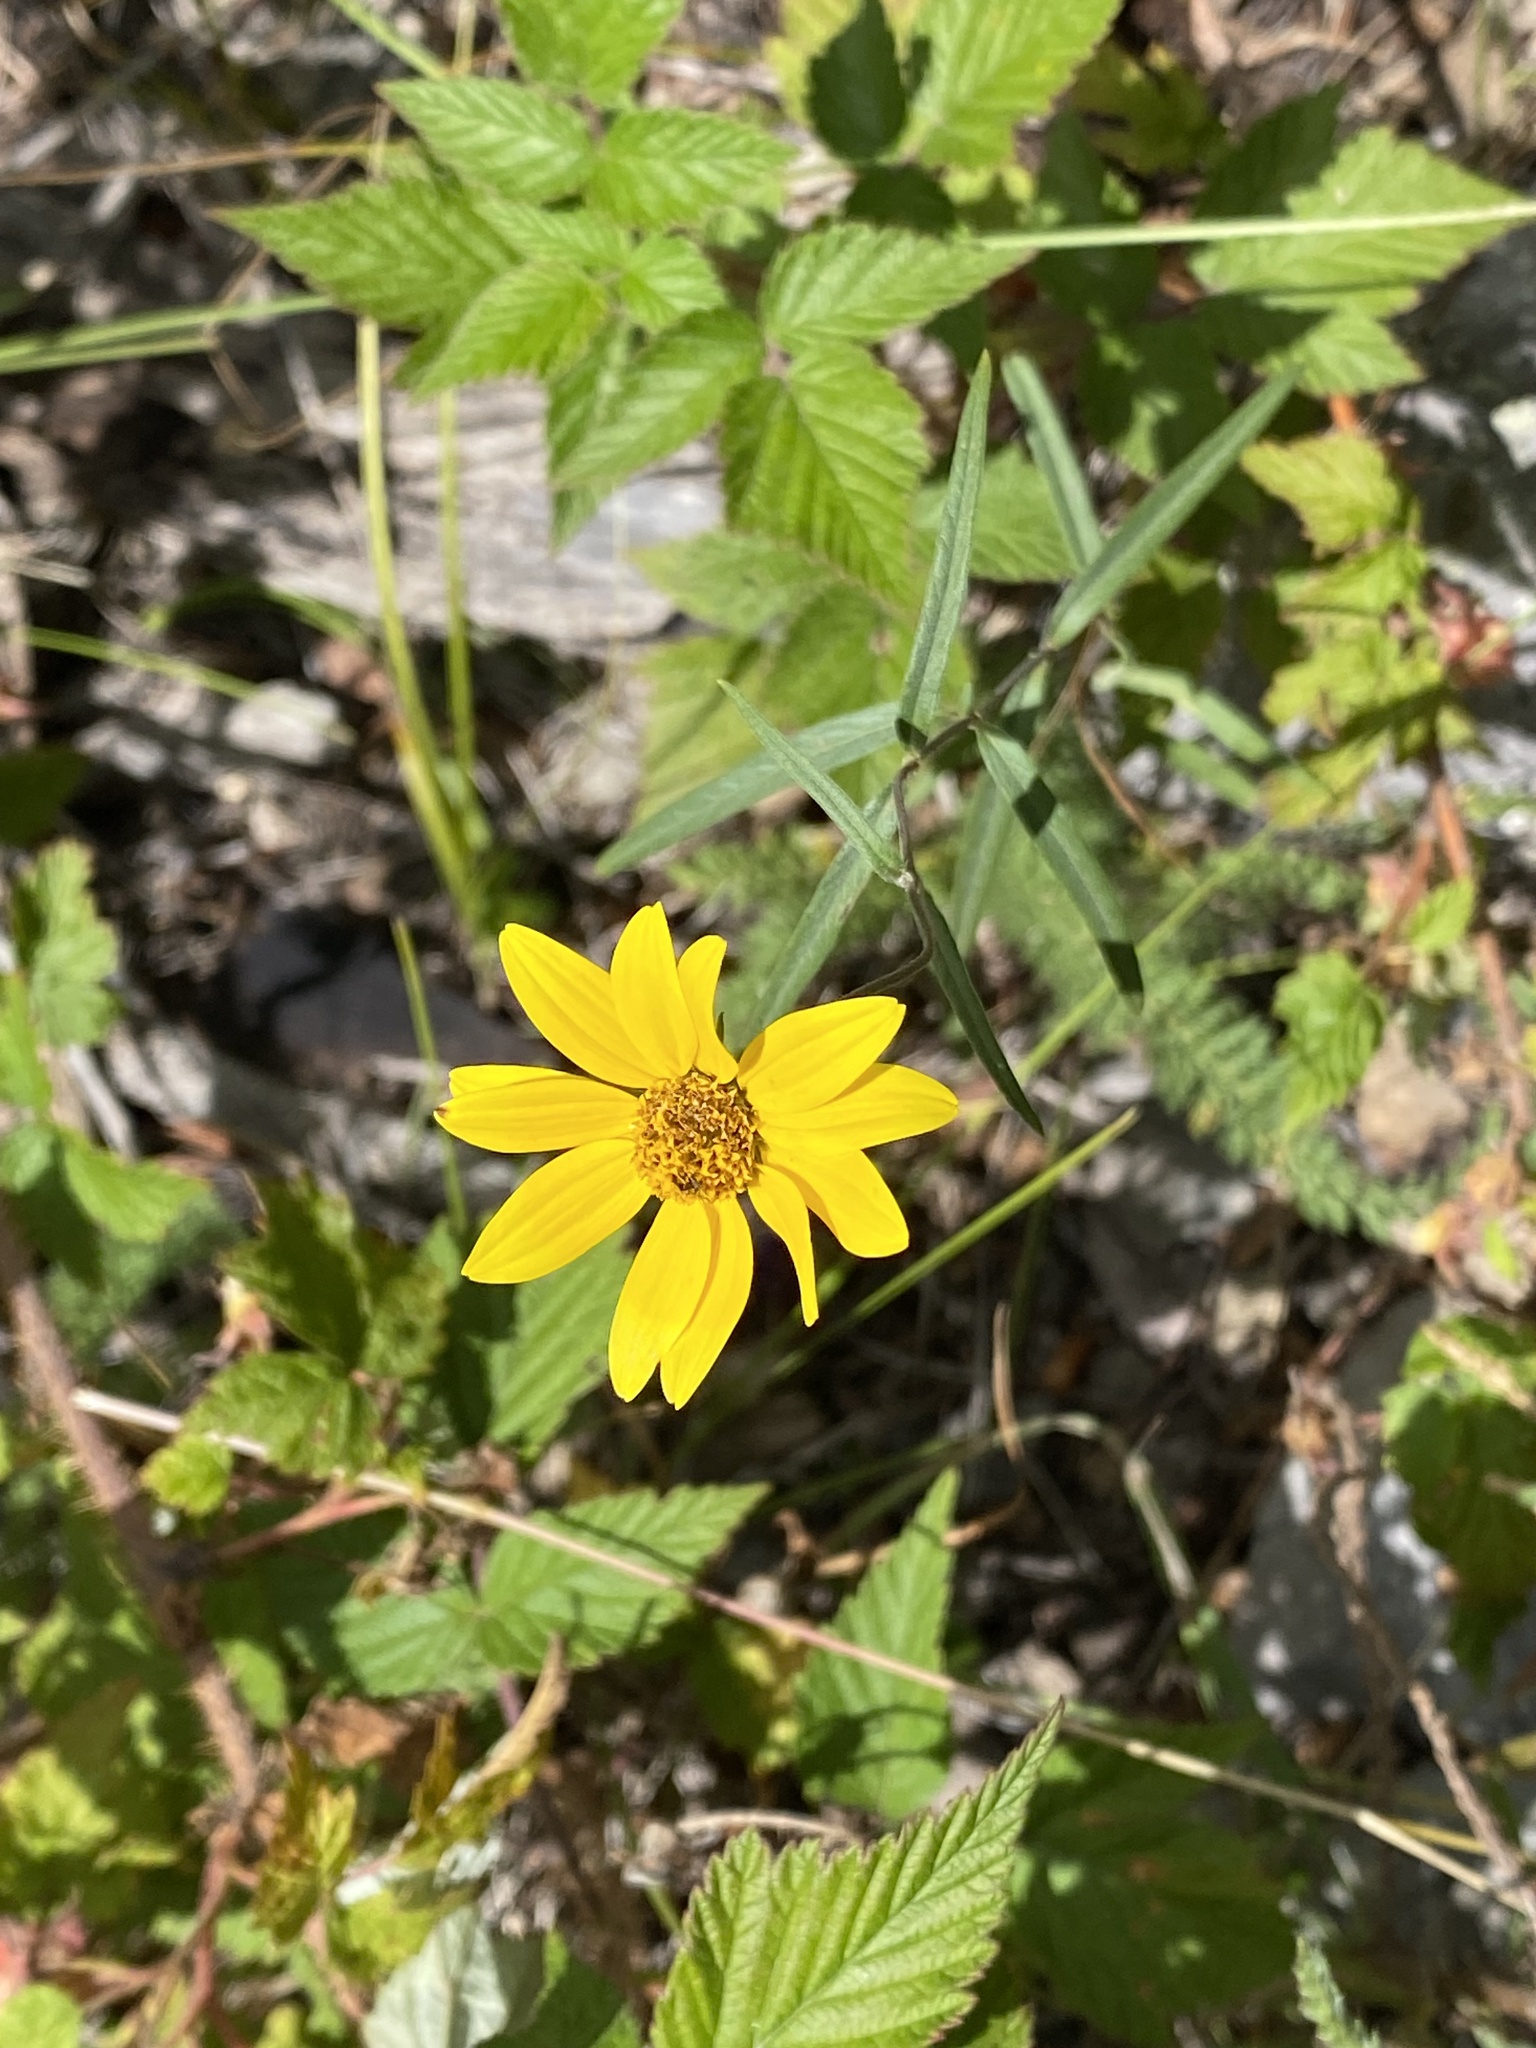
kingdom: Plantae
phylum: Tracheophyta
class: Magnoliopsida
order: Asterales
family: Asteraceae
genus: Heliomeris
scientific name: Heliomeris multiflora
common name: Showy goldeneye
